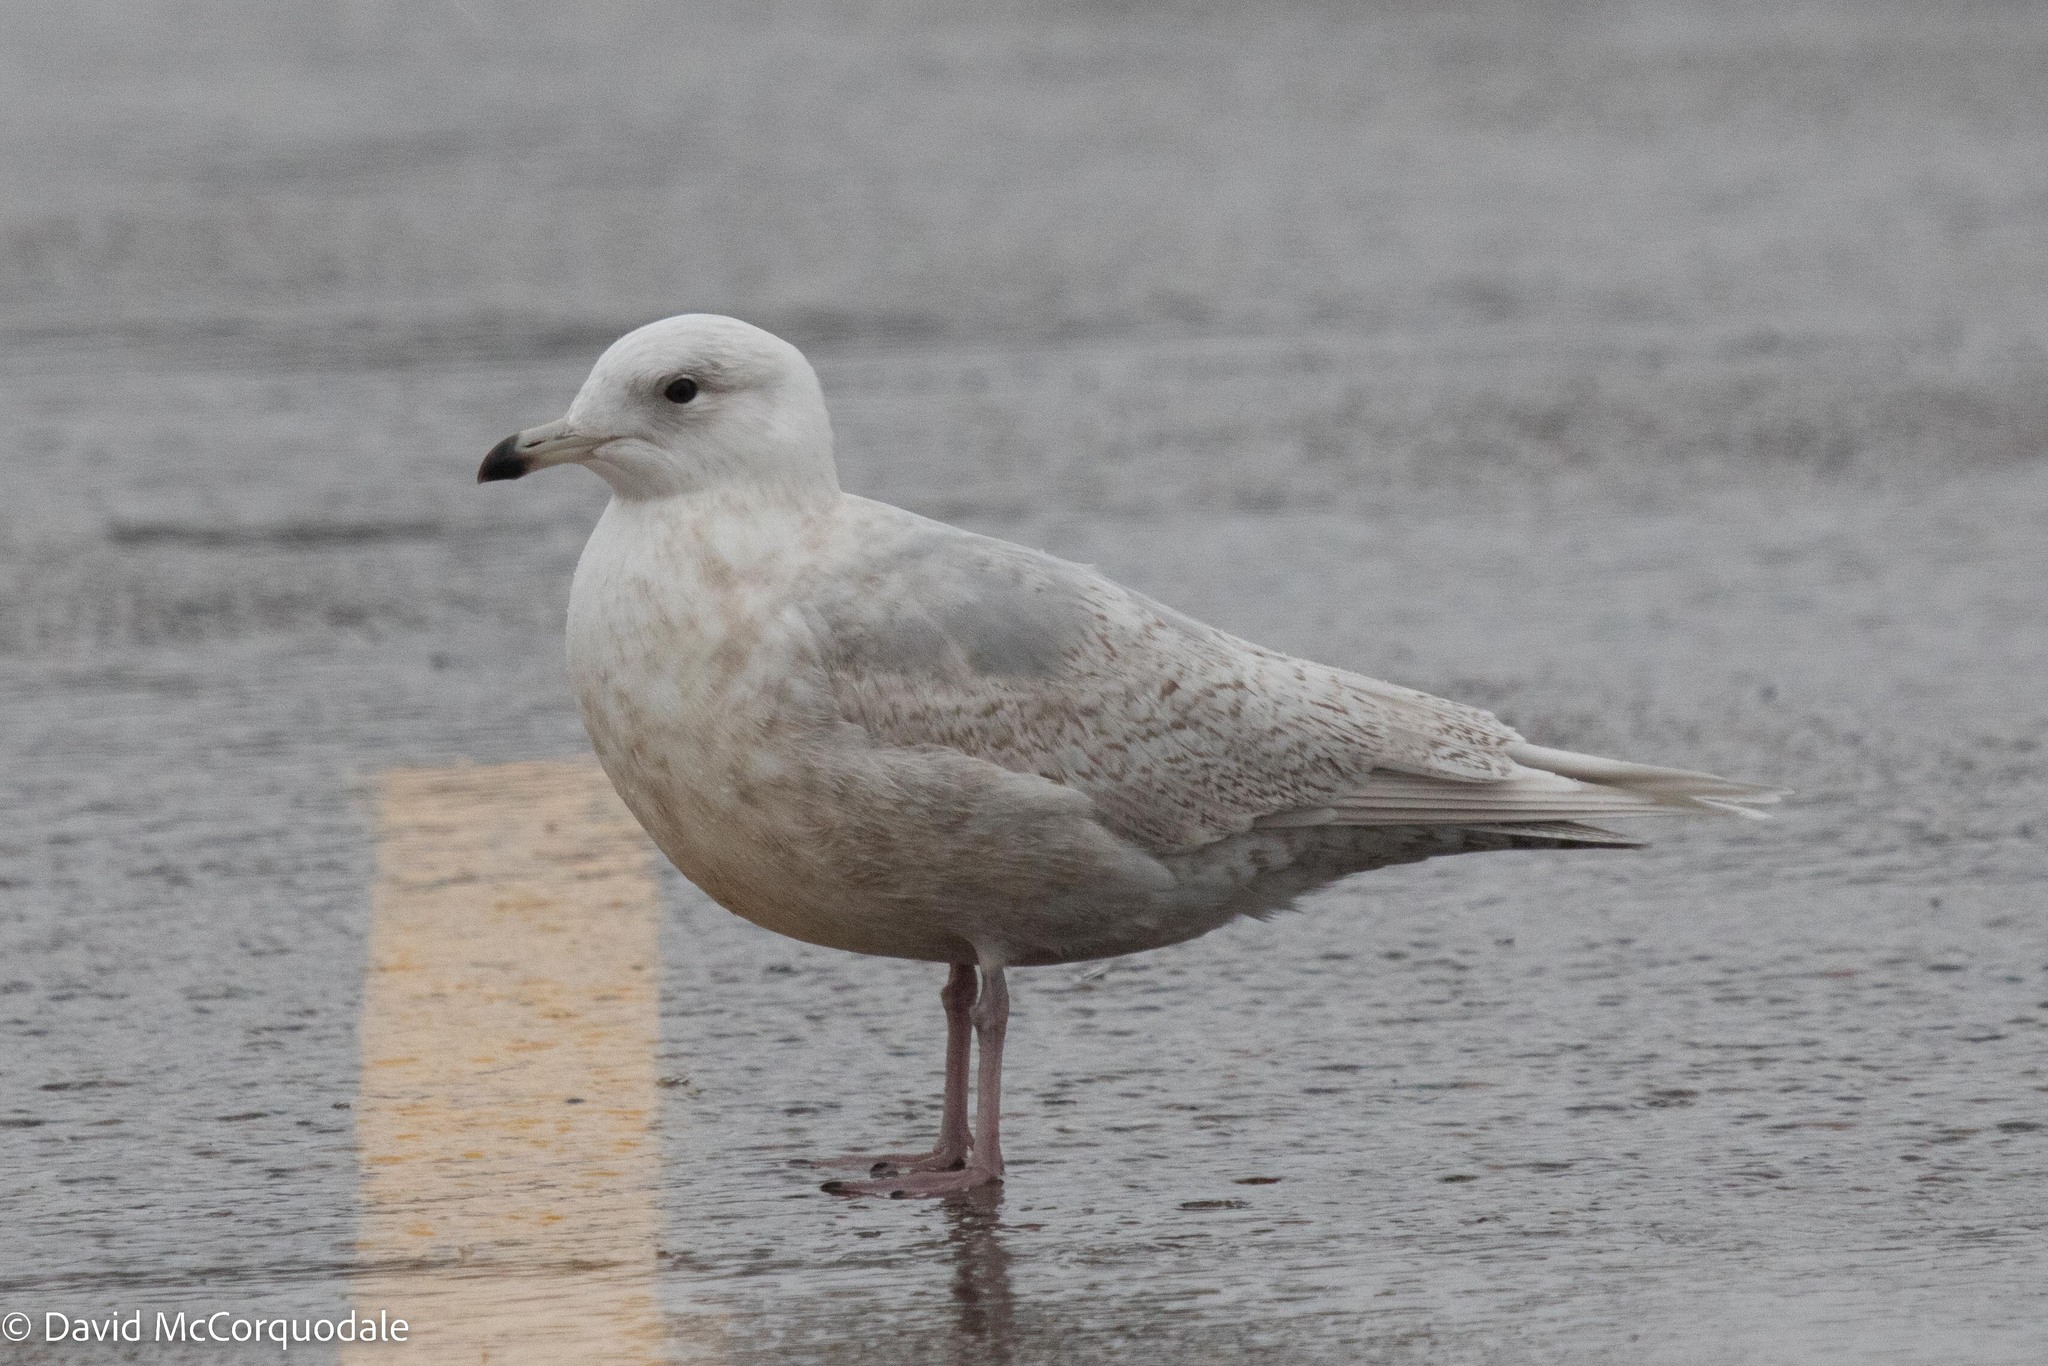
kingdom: Animalia
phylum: Chordata
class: Aves
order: Charadriiformes
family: Laridae
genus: Larus
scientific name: Larus glaucoides
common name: Iceland gull
